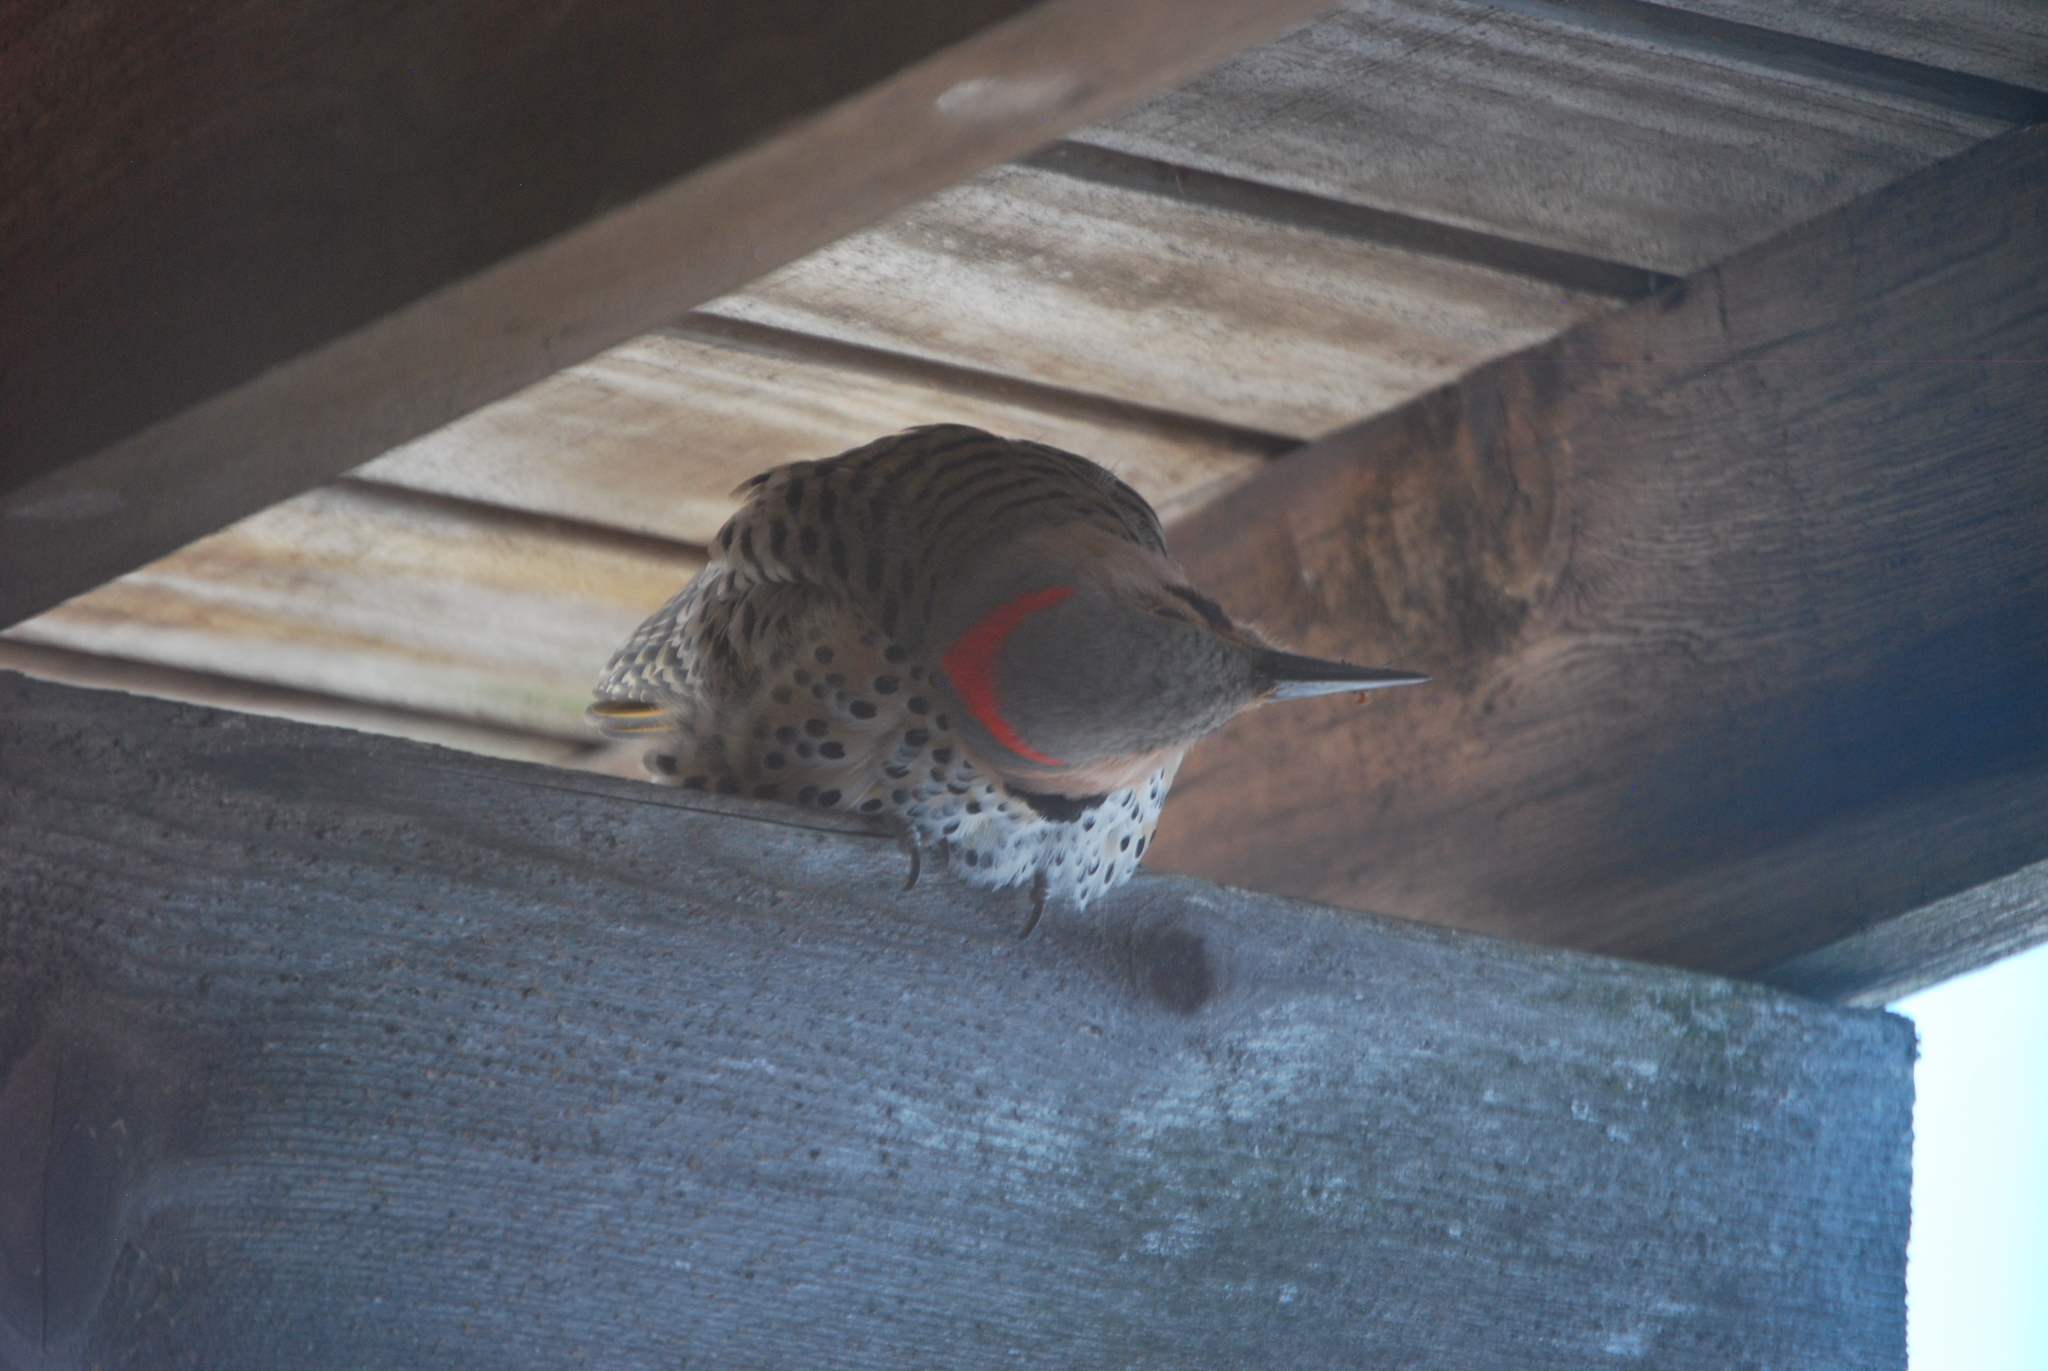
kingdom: Animalia
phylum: Chordata
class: Aves
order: Piciformes
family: Picidae
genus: Colaptes
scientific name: Colaptes auratus
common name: Northern flicker
